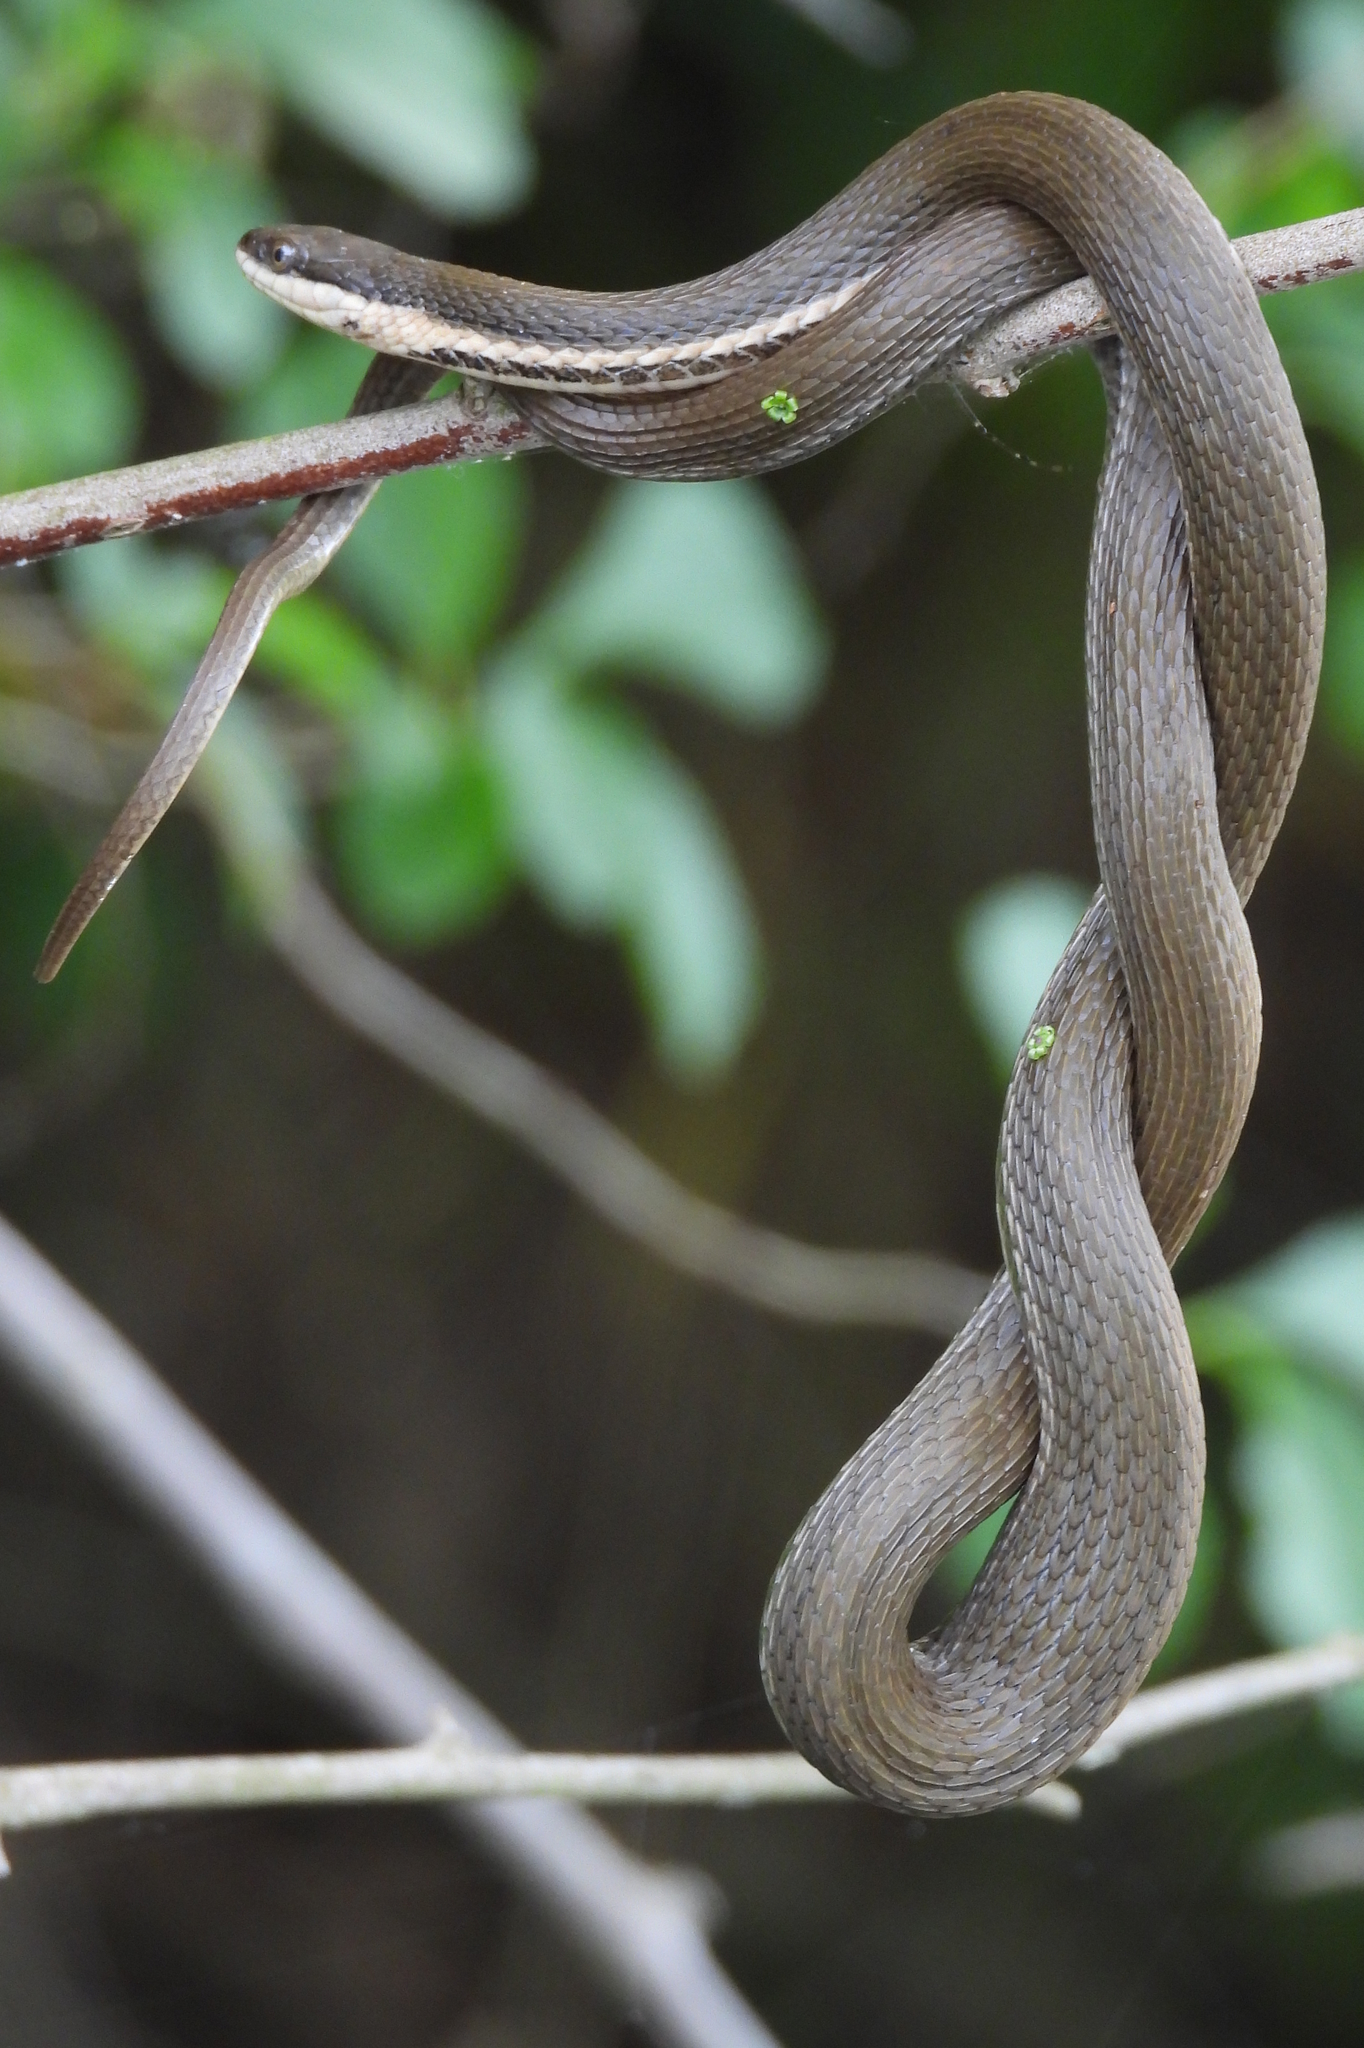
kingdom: Animalia
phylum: Chordata
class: Squamata
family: Colubridae
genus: Regina
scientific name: Regina septemvittata
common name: Queen snake
